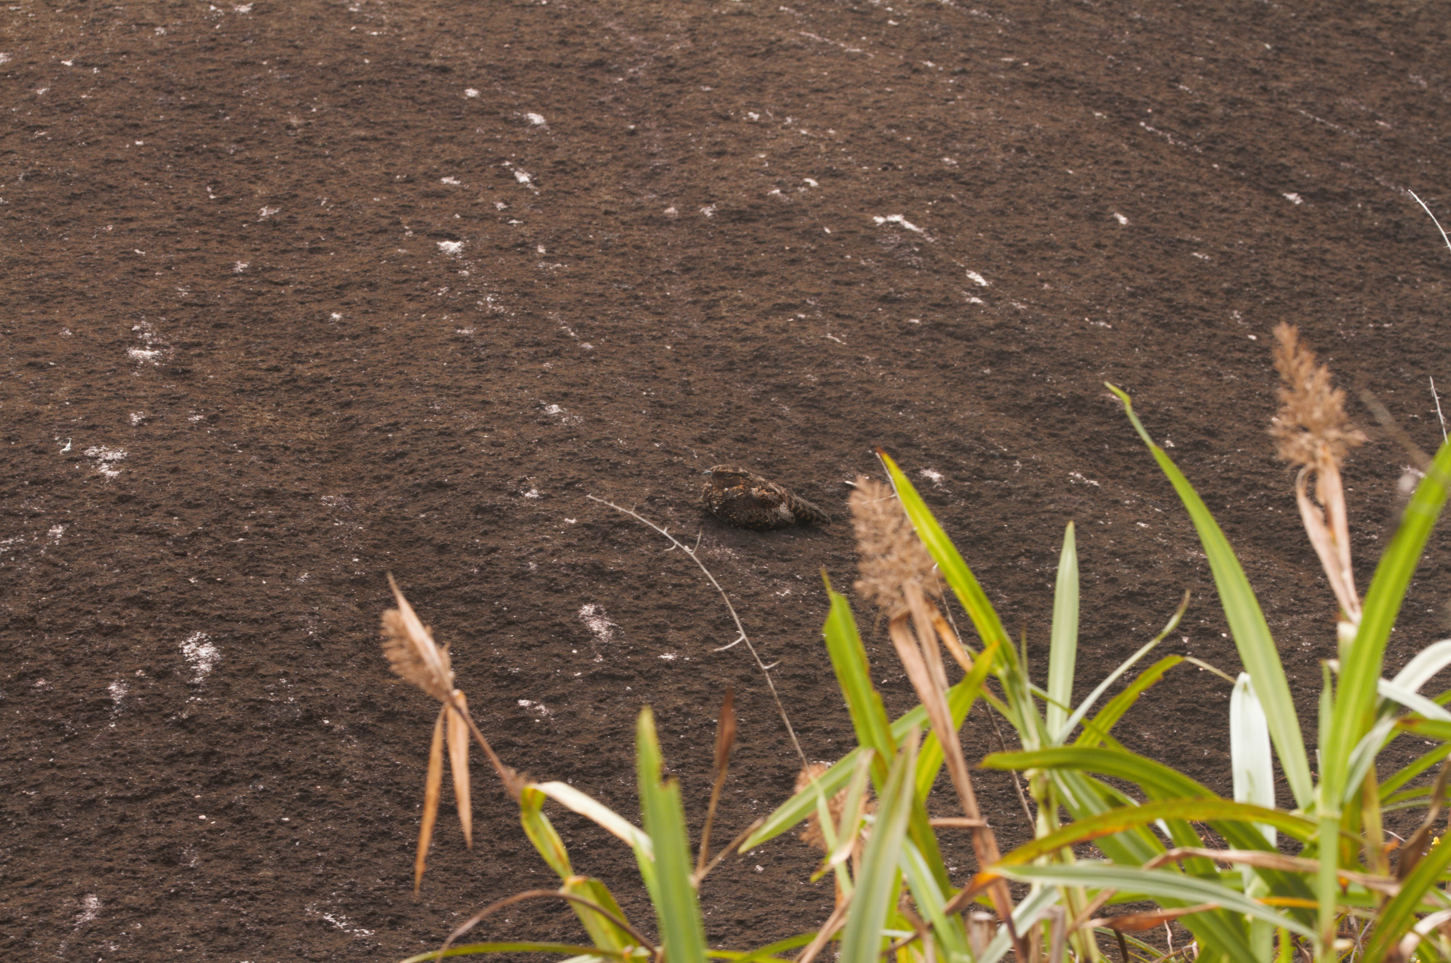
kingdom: Animalia
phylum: Chordata
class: Aves
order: Caprimulgiformes
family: Caprimulgidae
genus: Nyctipolus
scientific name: Nyctipolus nigrescens
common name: Blackish nightjar
